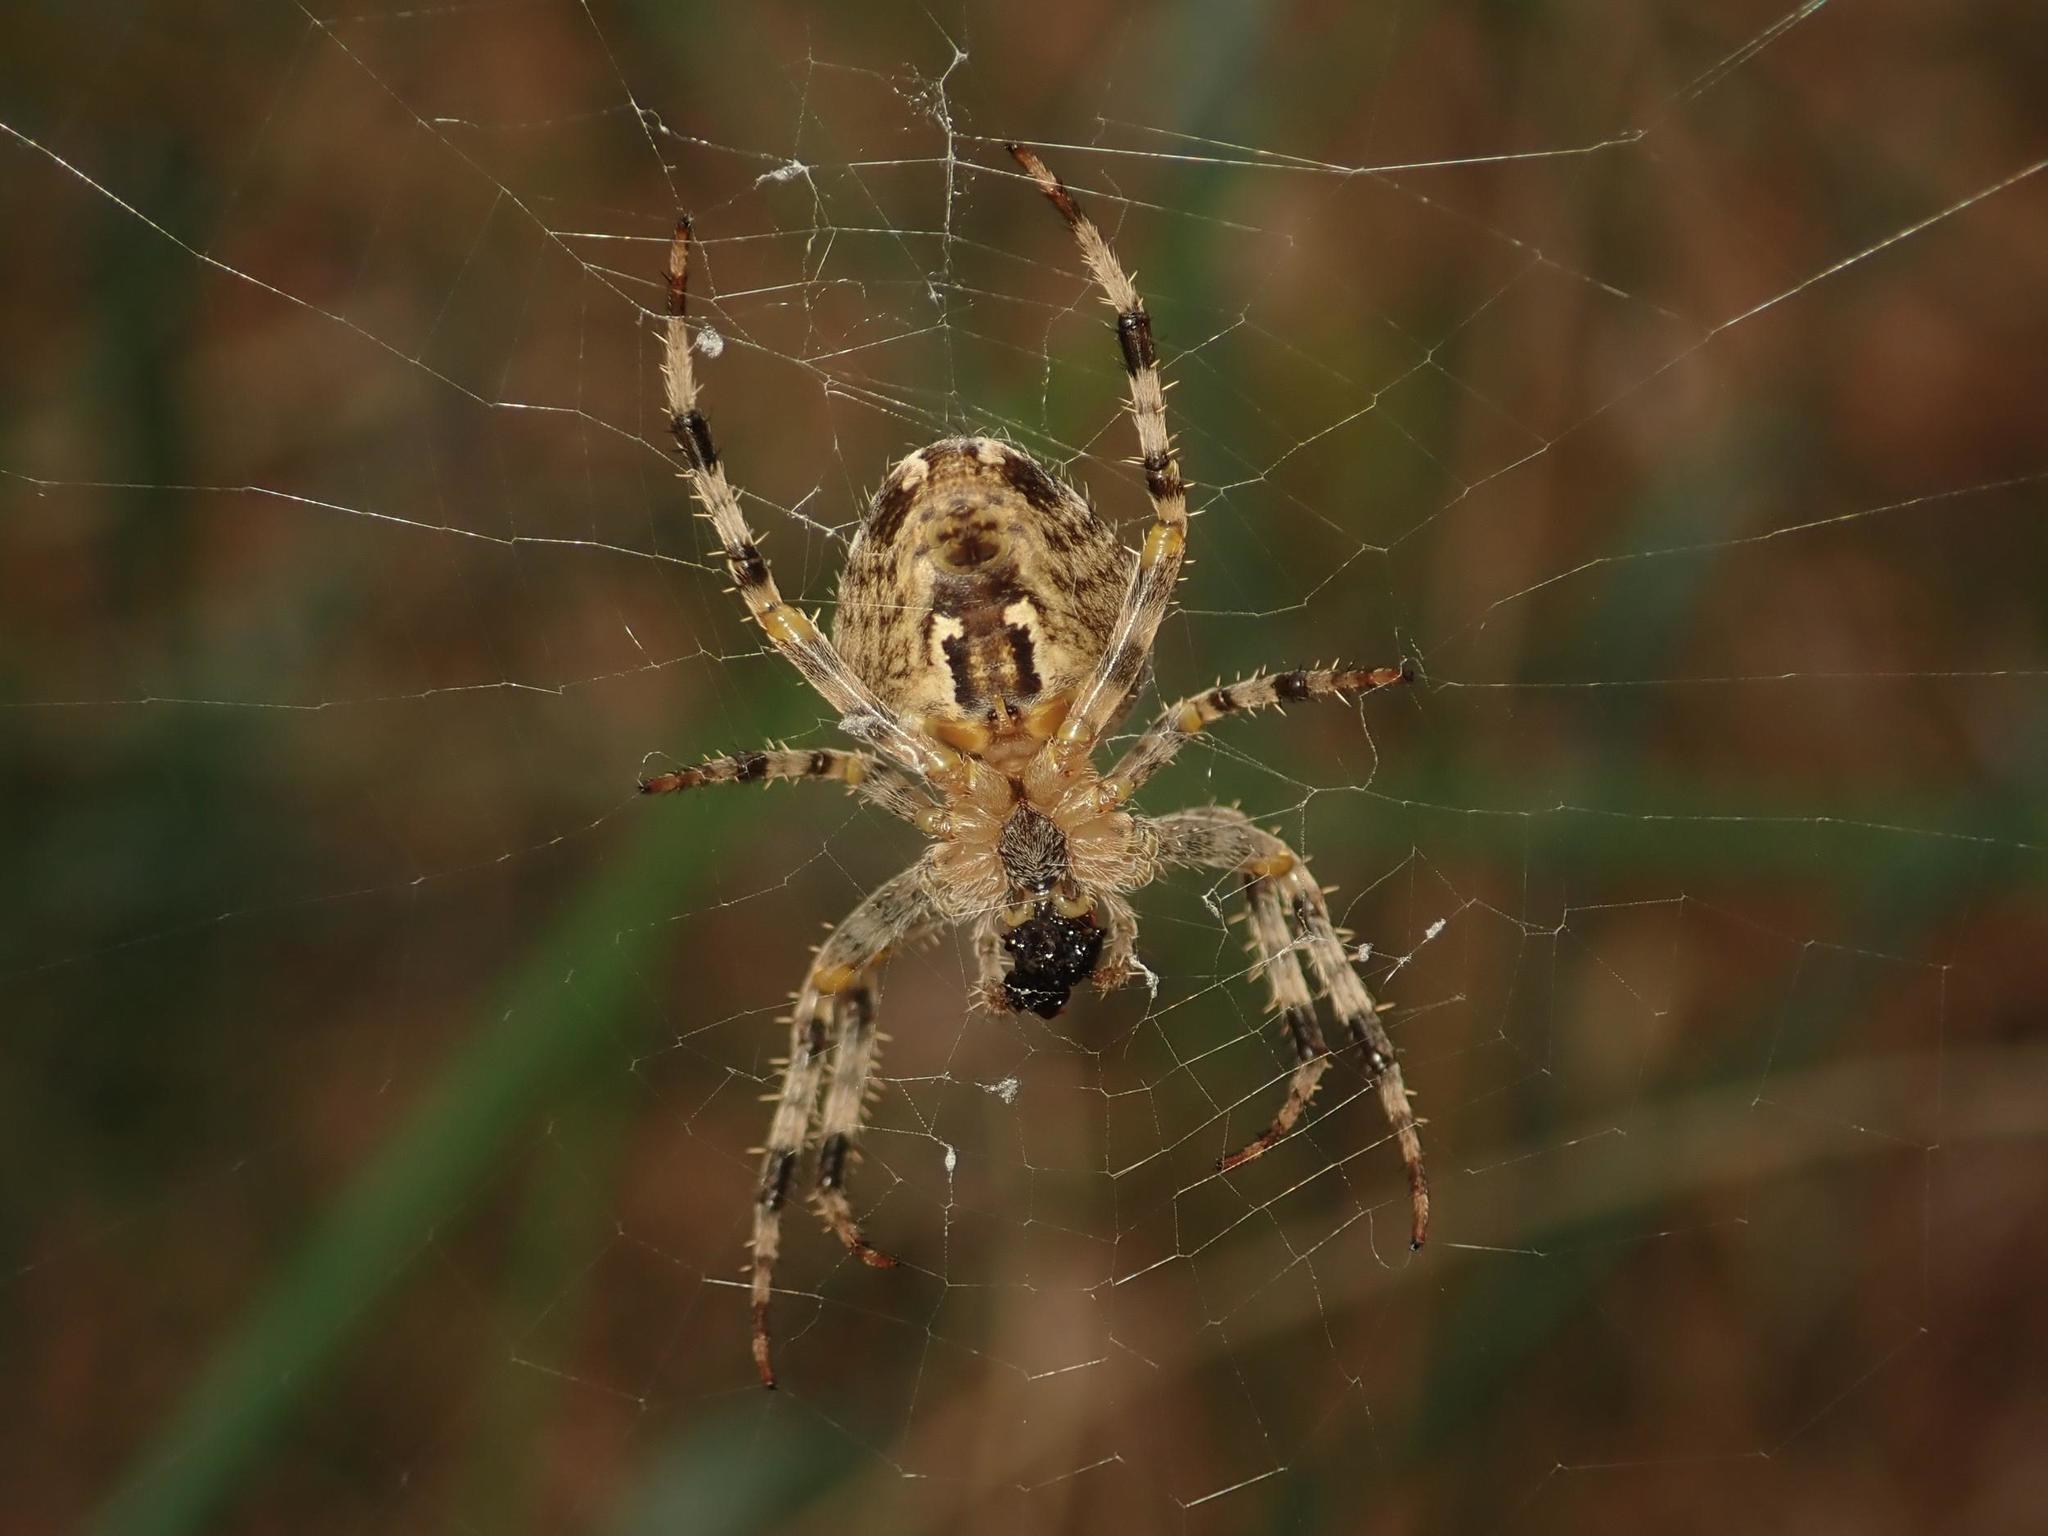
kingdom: Animalia
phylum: Arthropoda
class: Arachnida
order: Araneae
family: Araneidae
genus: Araneus
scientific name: Araneus diadematus
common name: Cross orbweaver
